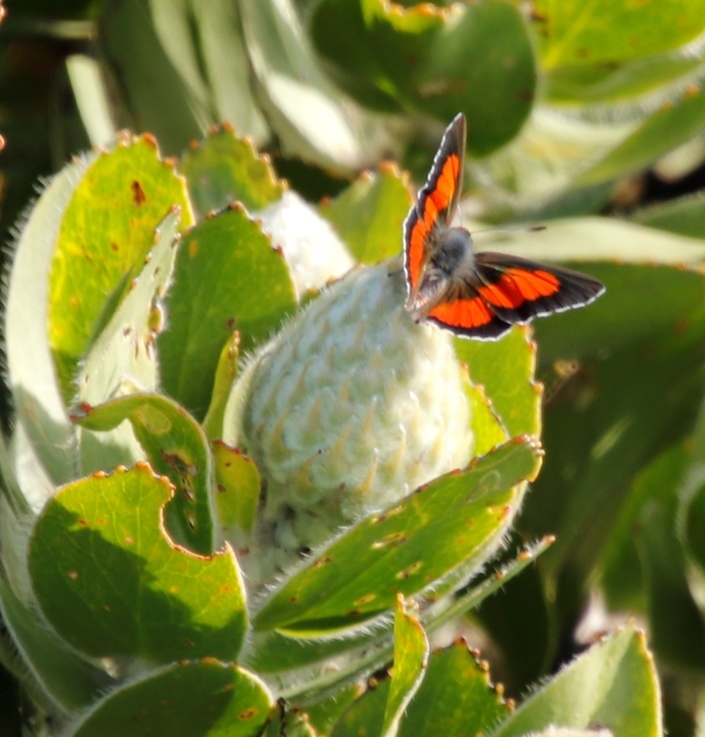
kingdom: Animalia
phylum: Arthropoda
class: Insecta
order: Lepidoptera
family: Lycaenidae
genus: Capys
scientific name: Capys alpheus
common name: Orange-banded protea butterfly
